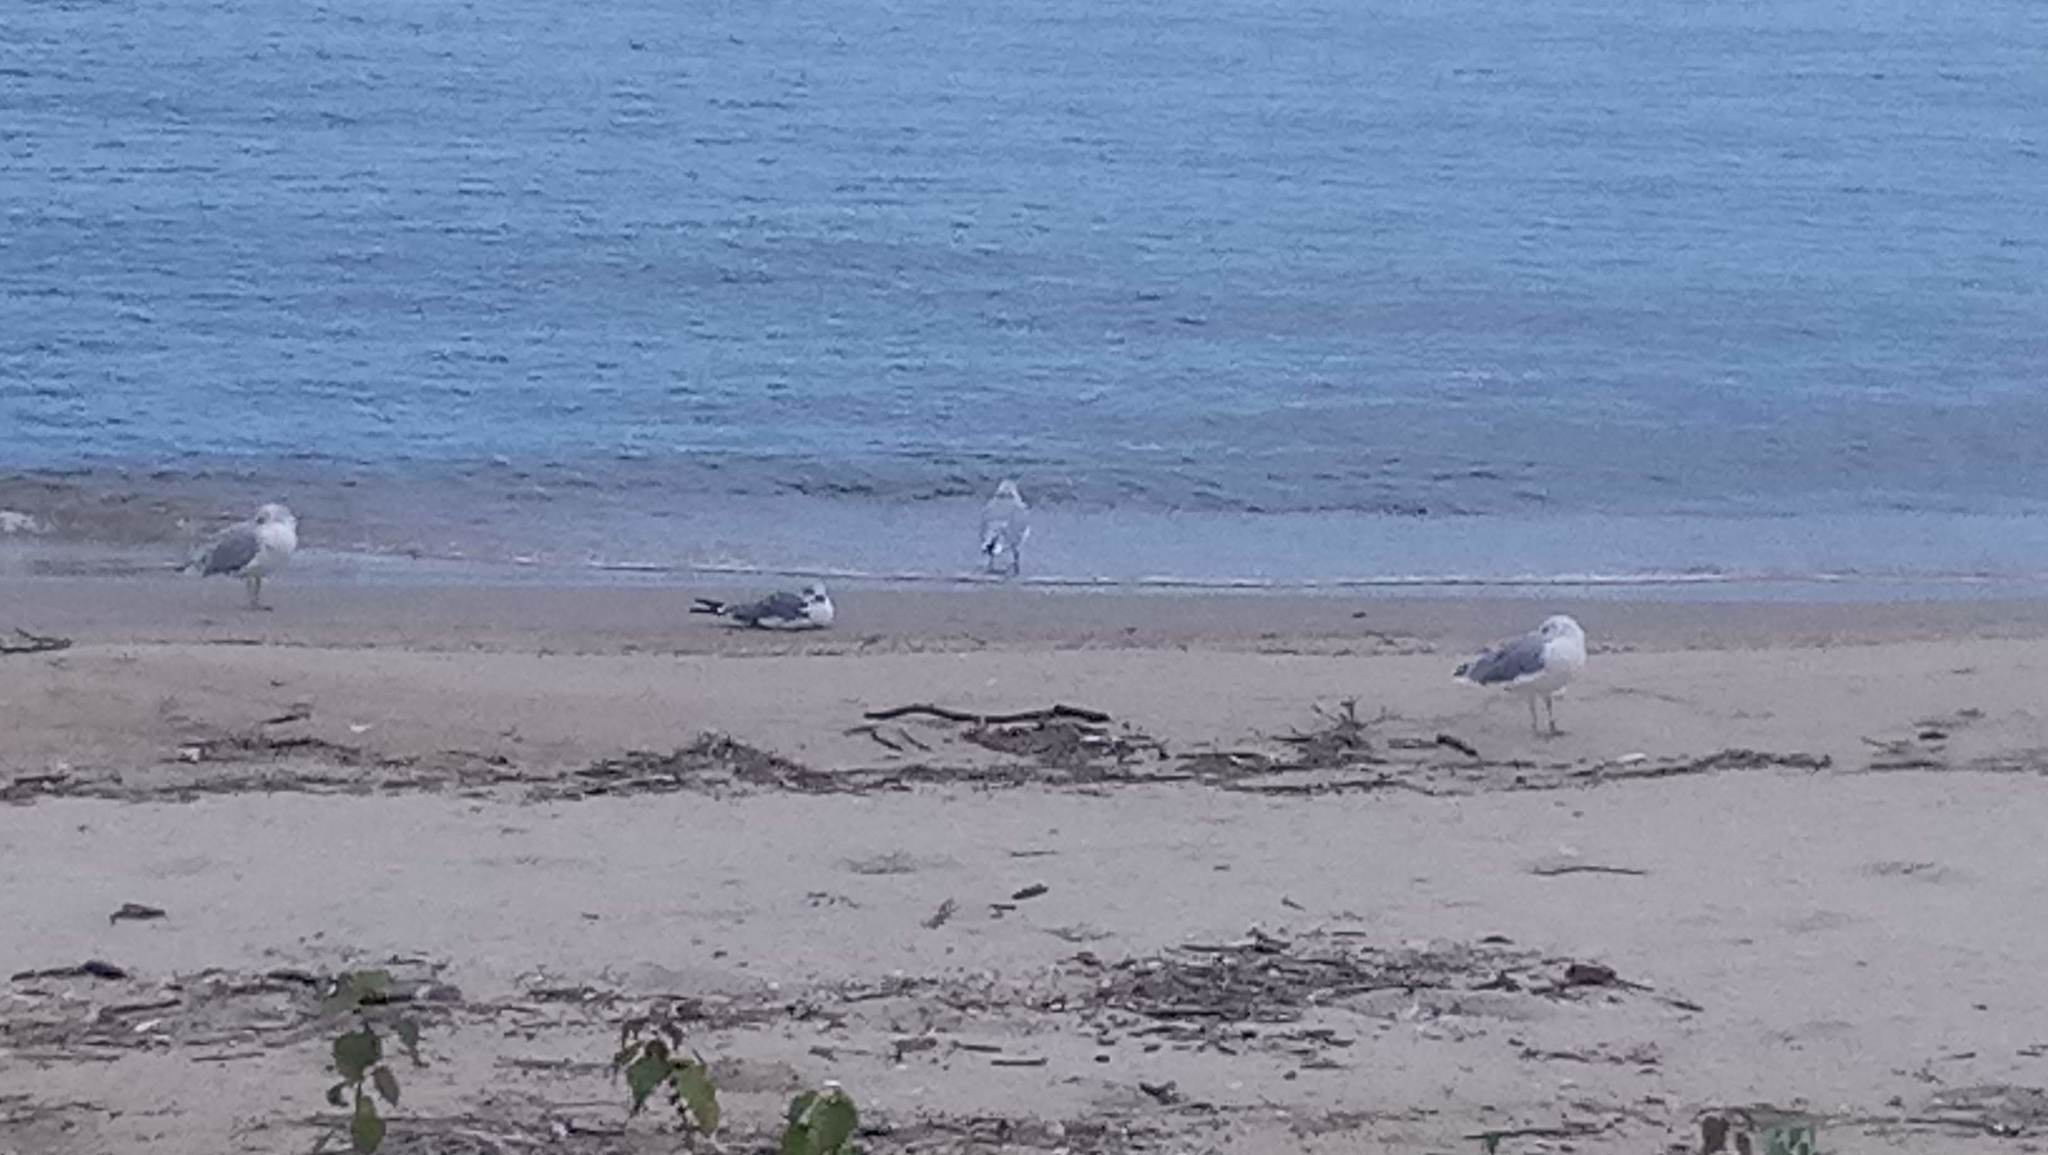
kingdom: Animalia
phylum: Chordata
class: Aves
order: Charadriiformes
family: Laridae
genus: Leucophaeus
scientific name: Leucophaeus atricilla
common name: Laughing gull
